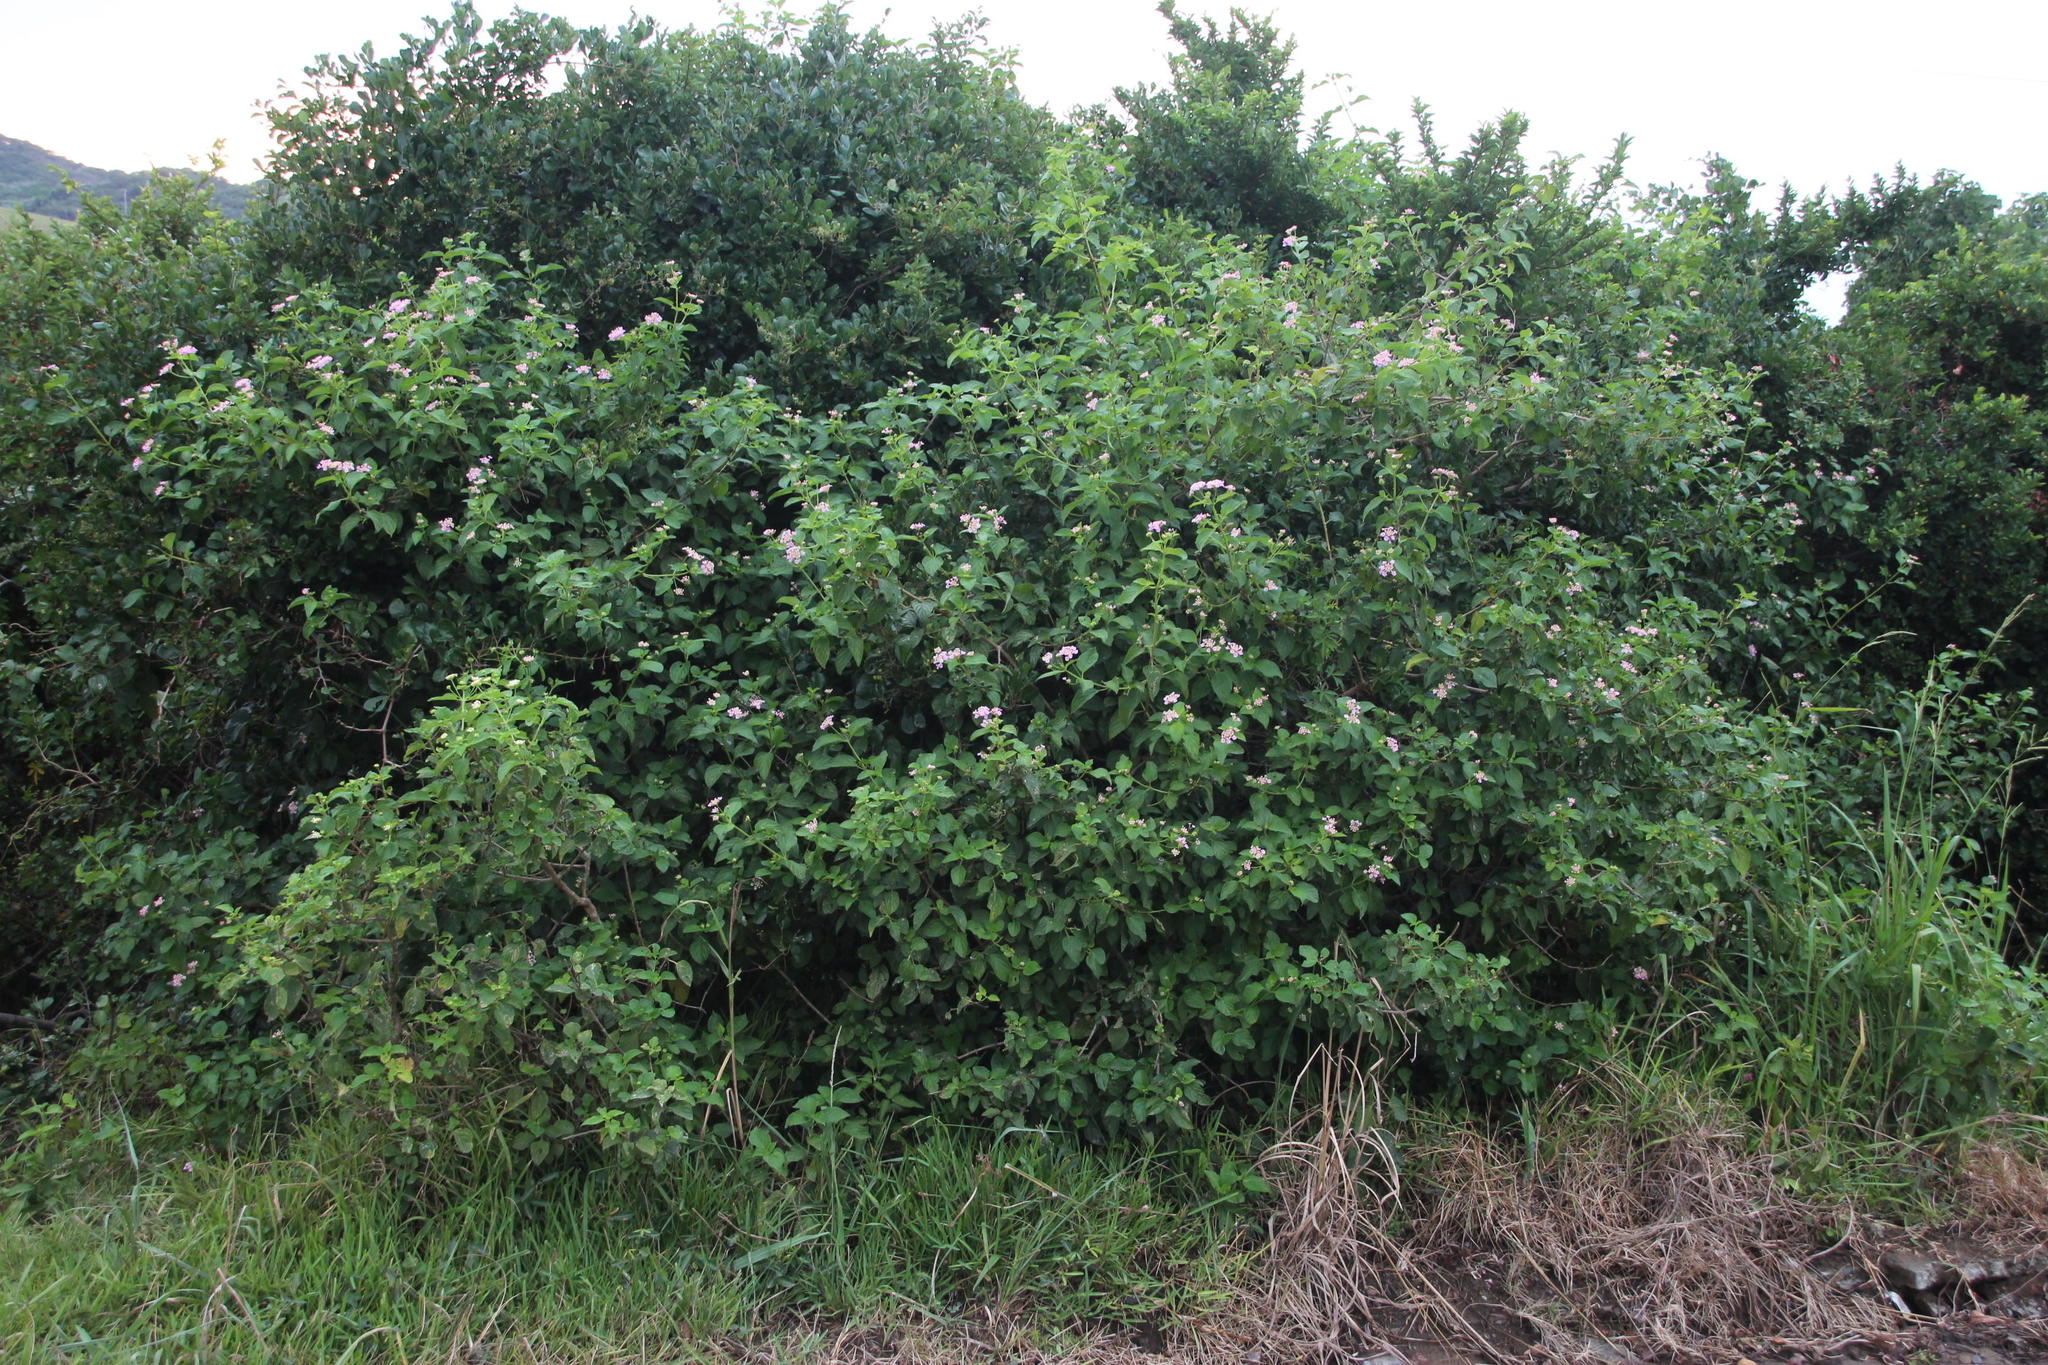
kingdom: Plantae
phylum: Tracheophyta
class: Magnoliopsida
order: Lamiales
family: Verbenaceae
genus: Lantana
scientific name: Lantana camara
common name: Lantana
